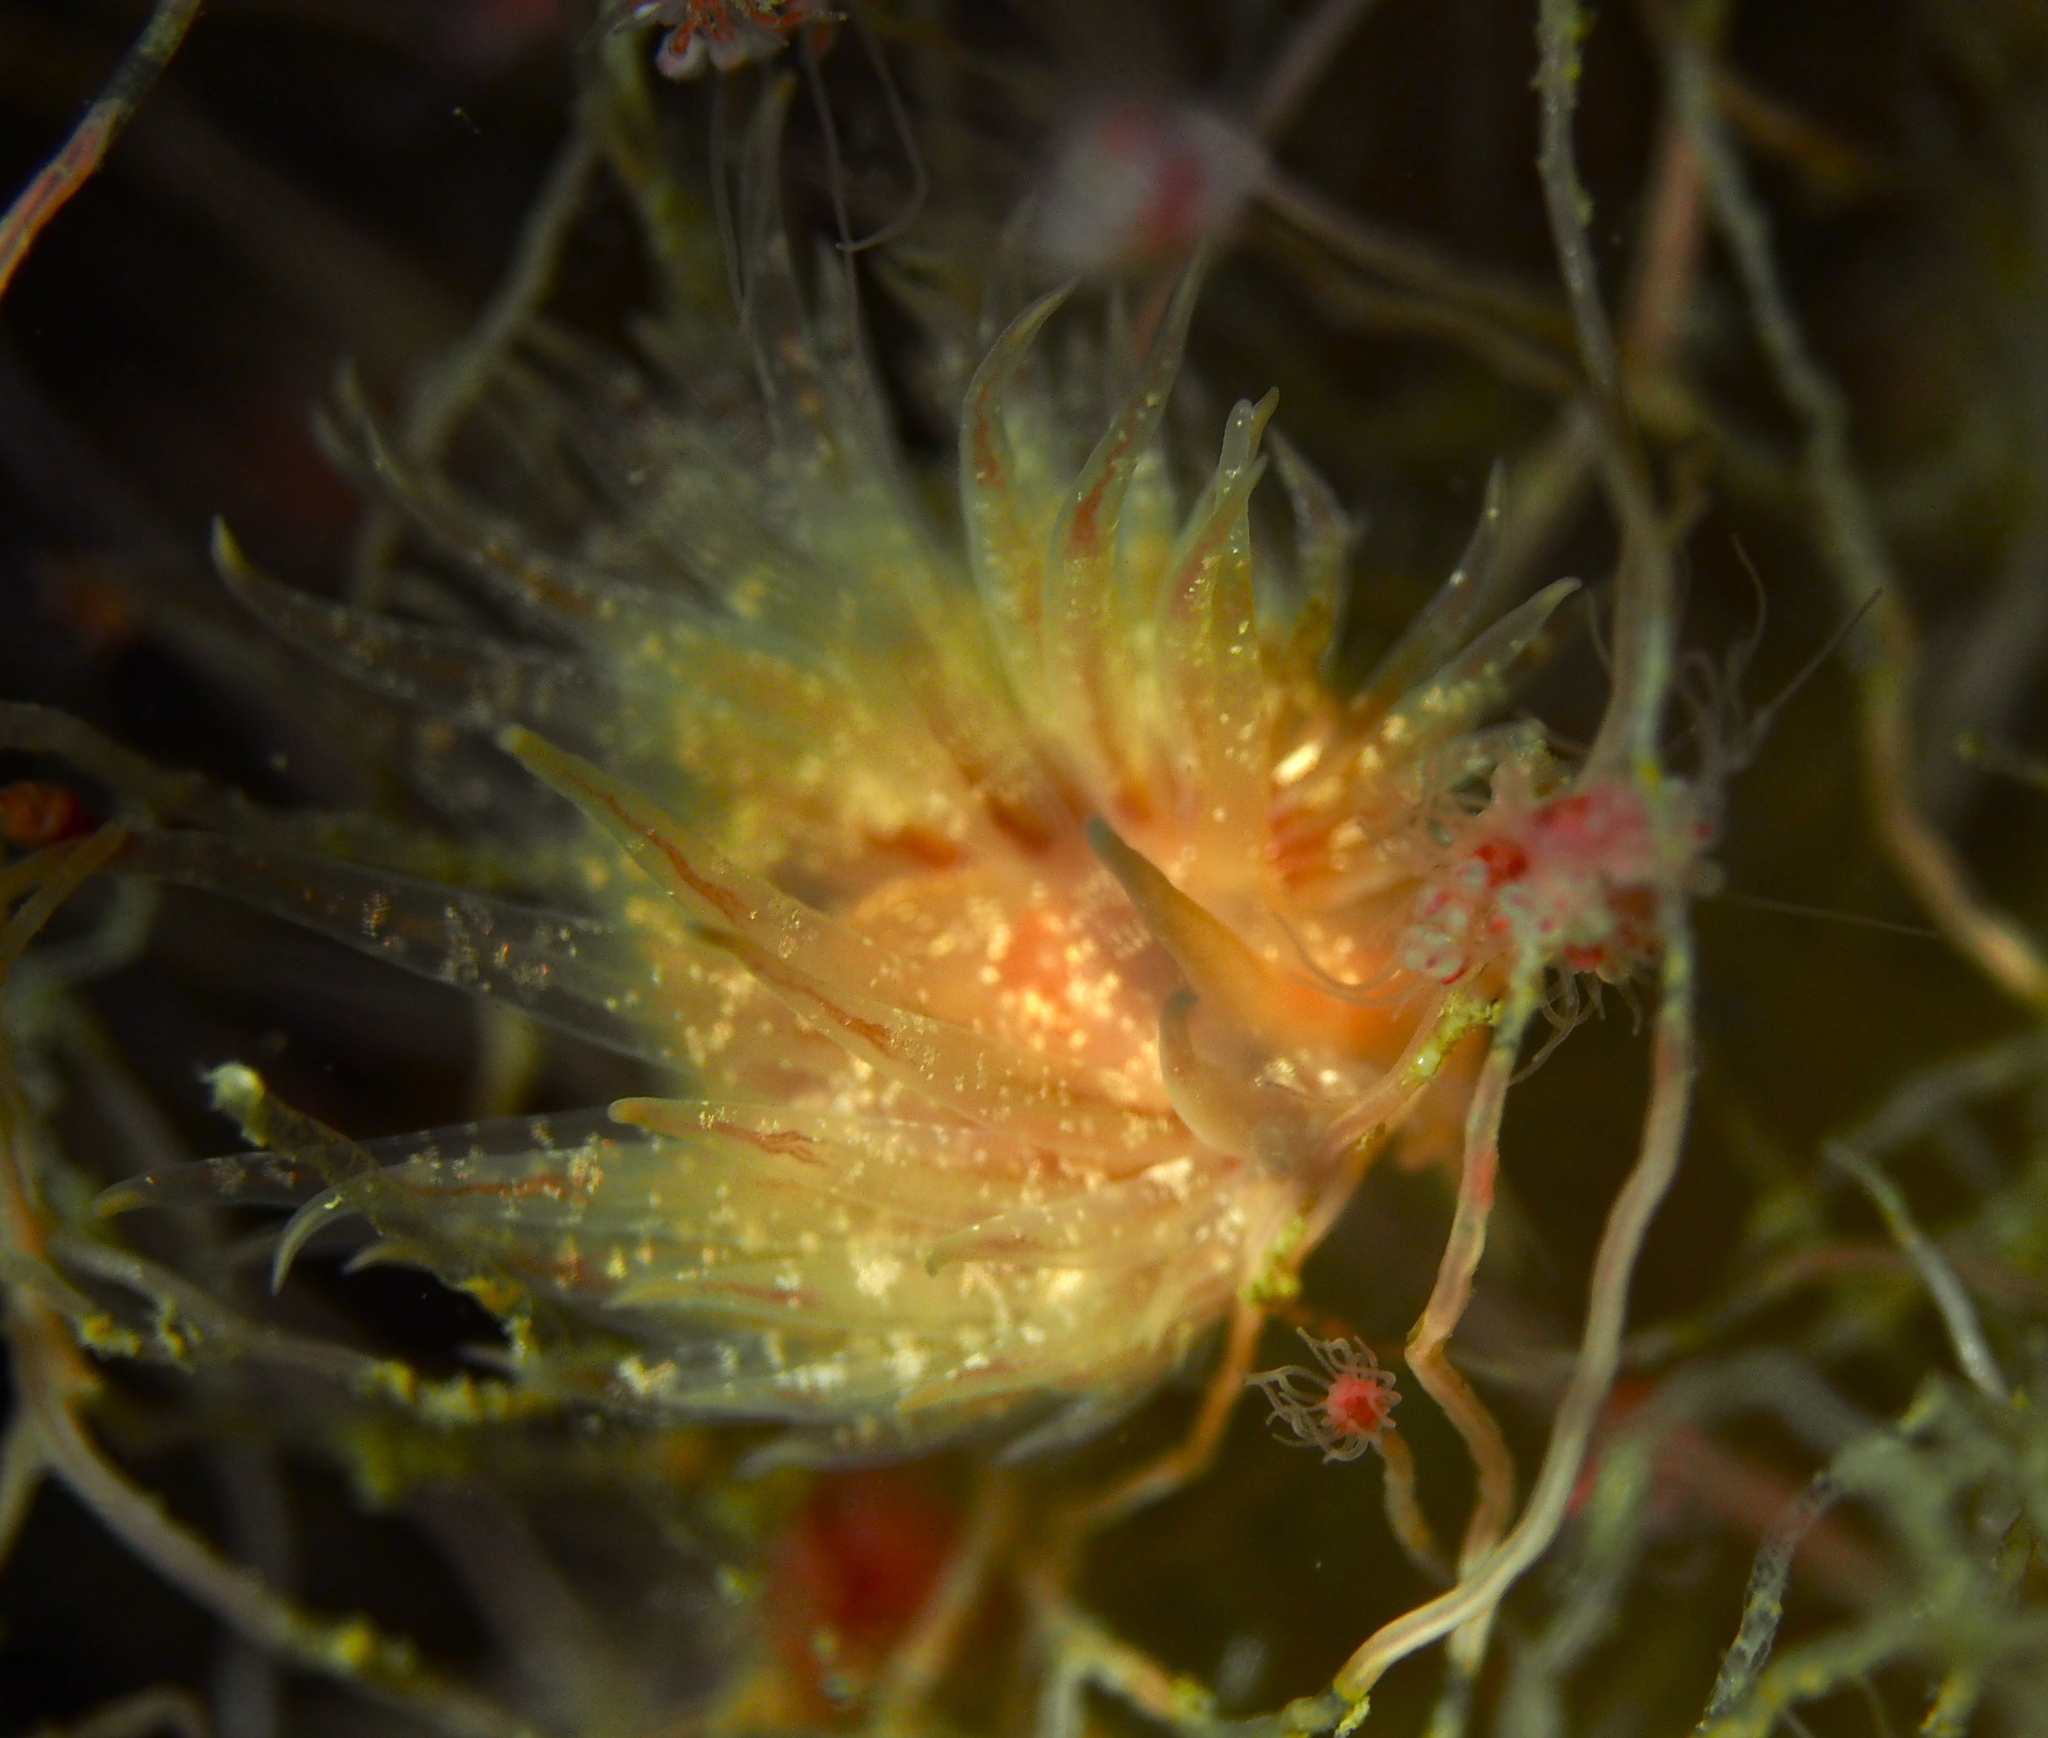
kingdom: Animalia
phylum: Mollusca
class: Gastropoda
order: Nudibranchia
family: Cumanotidae
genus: Cumanotus
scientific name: Cumanotus beaumonti
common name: Polyp aeolis
